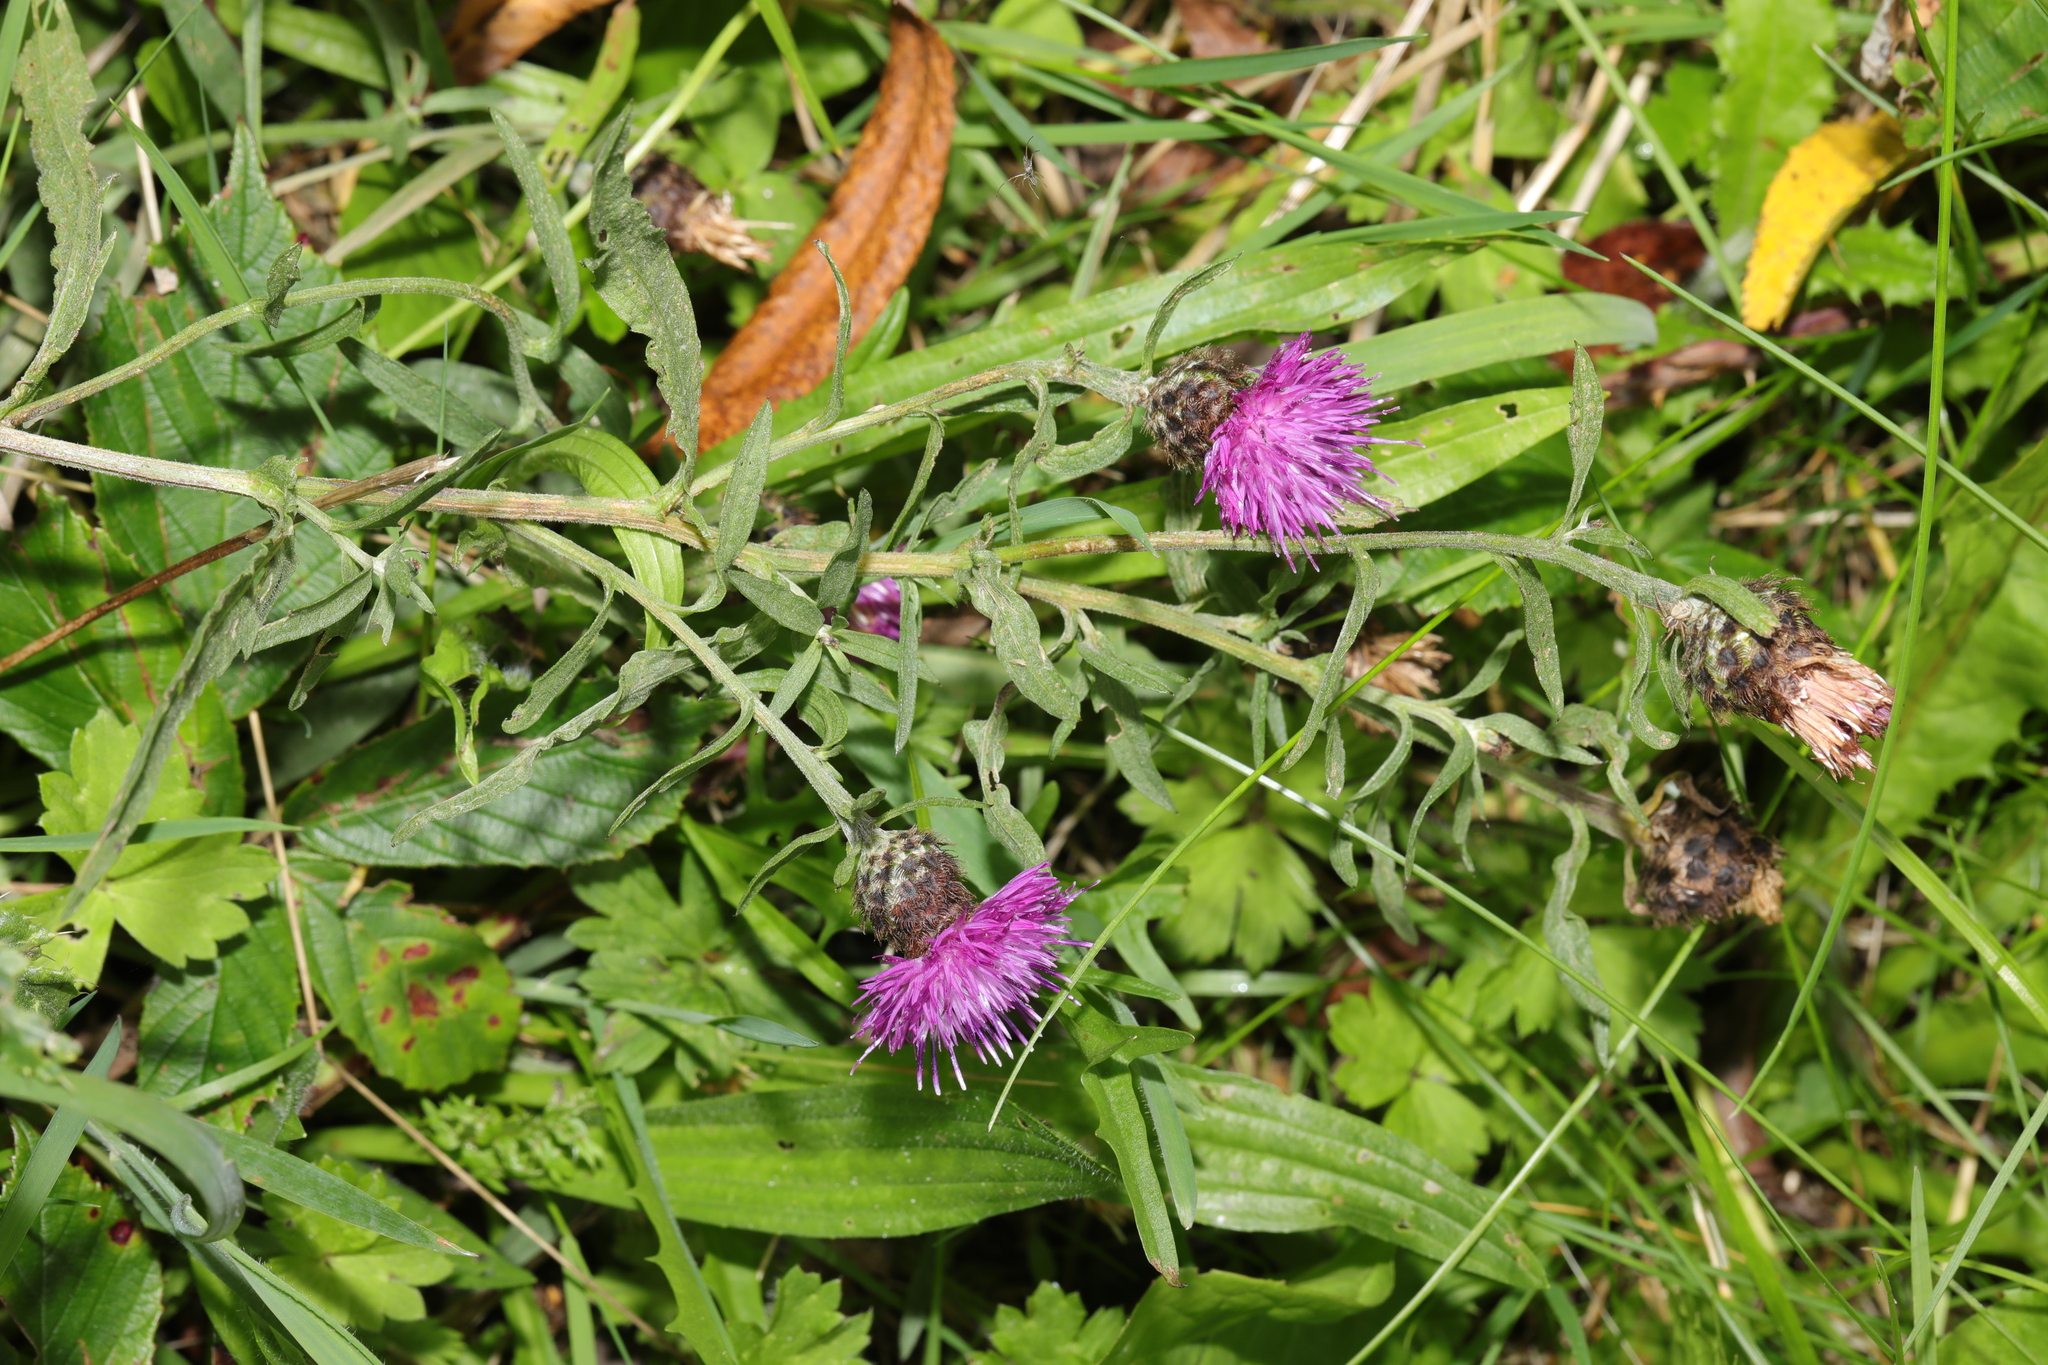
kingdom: Plantae
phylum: Tracheophyta
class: Magnoliopsida
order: Asterales
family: Asteraceae
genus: Centaurea
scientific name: Centaurea nigra
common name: Lesser knapweed
